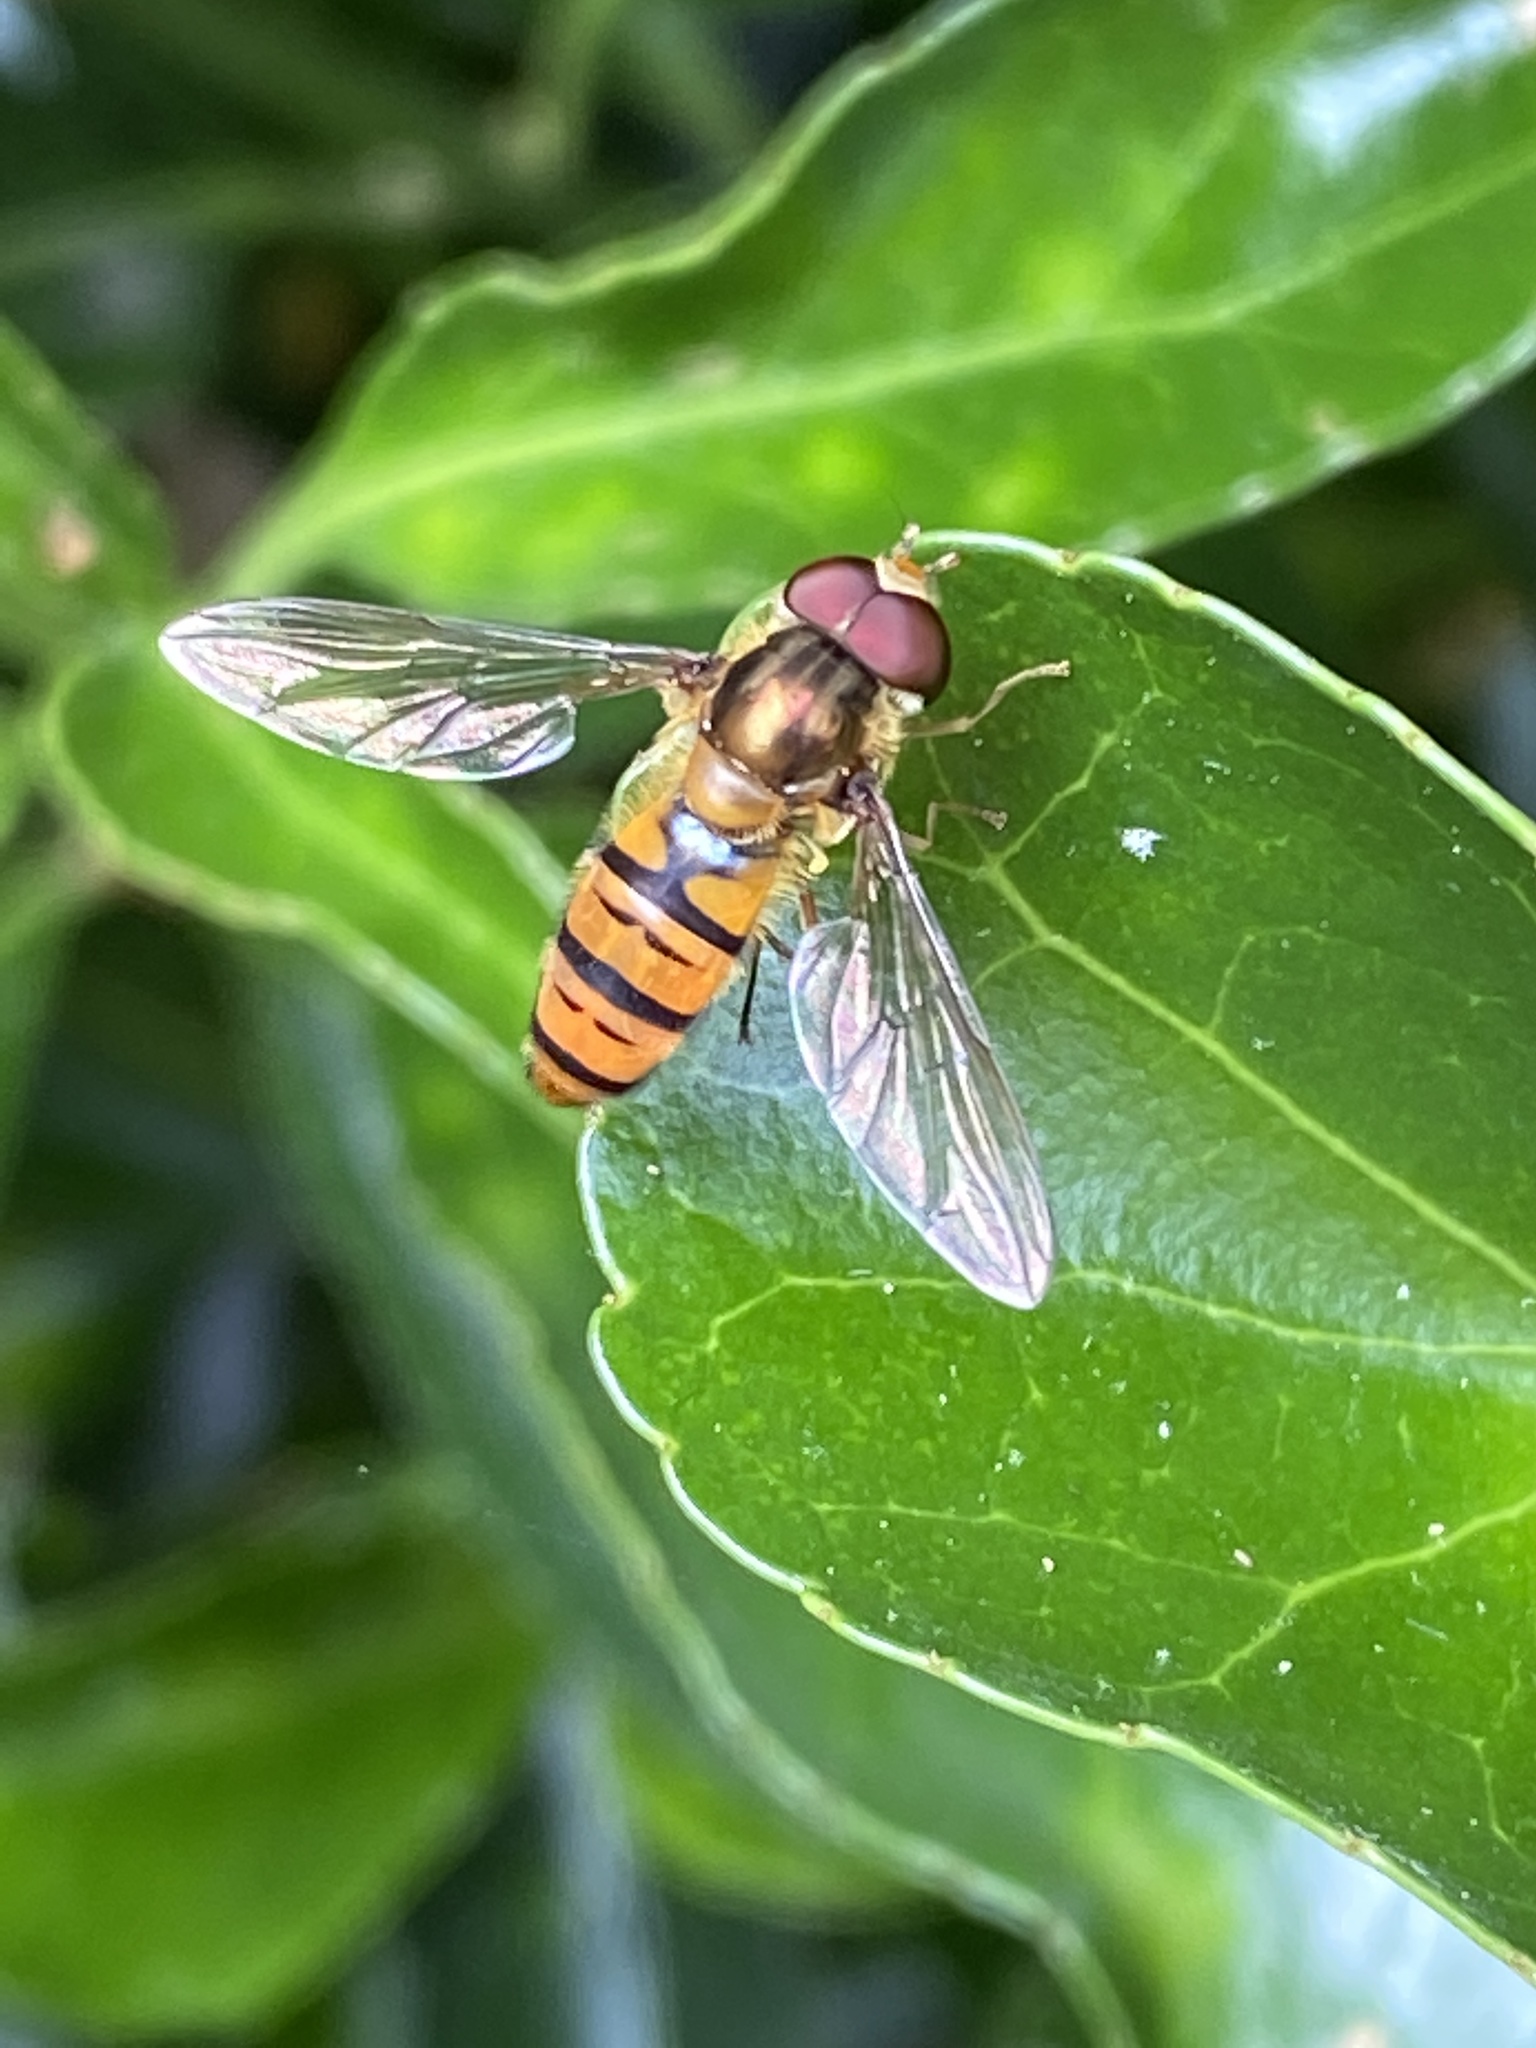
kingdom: Animalia
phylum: Arthropoda
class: Insecta
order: Diptera
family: Syrphidae
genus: Episyrphus
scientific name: Episyrphus balteatus
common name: Marmalade hoverfly
